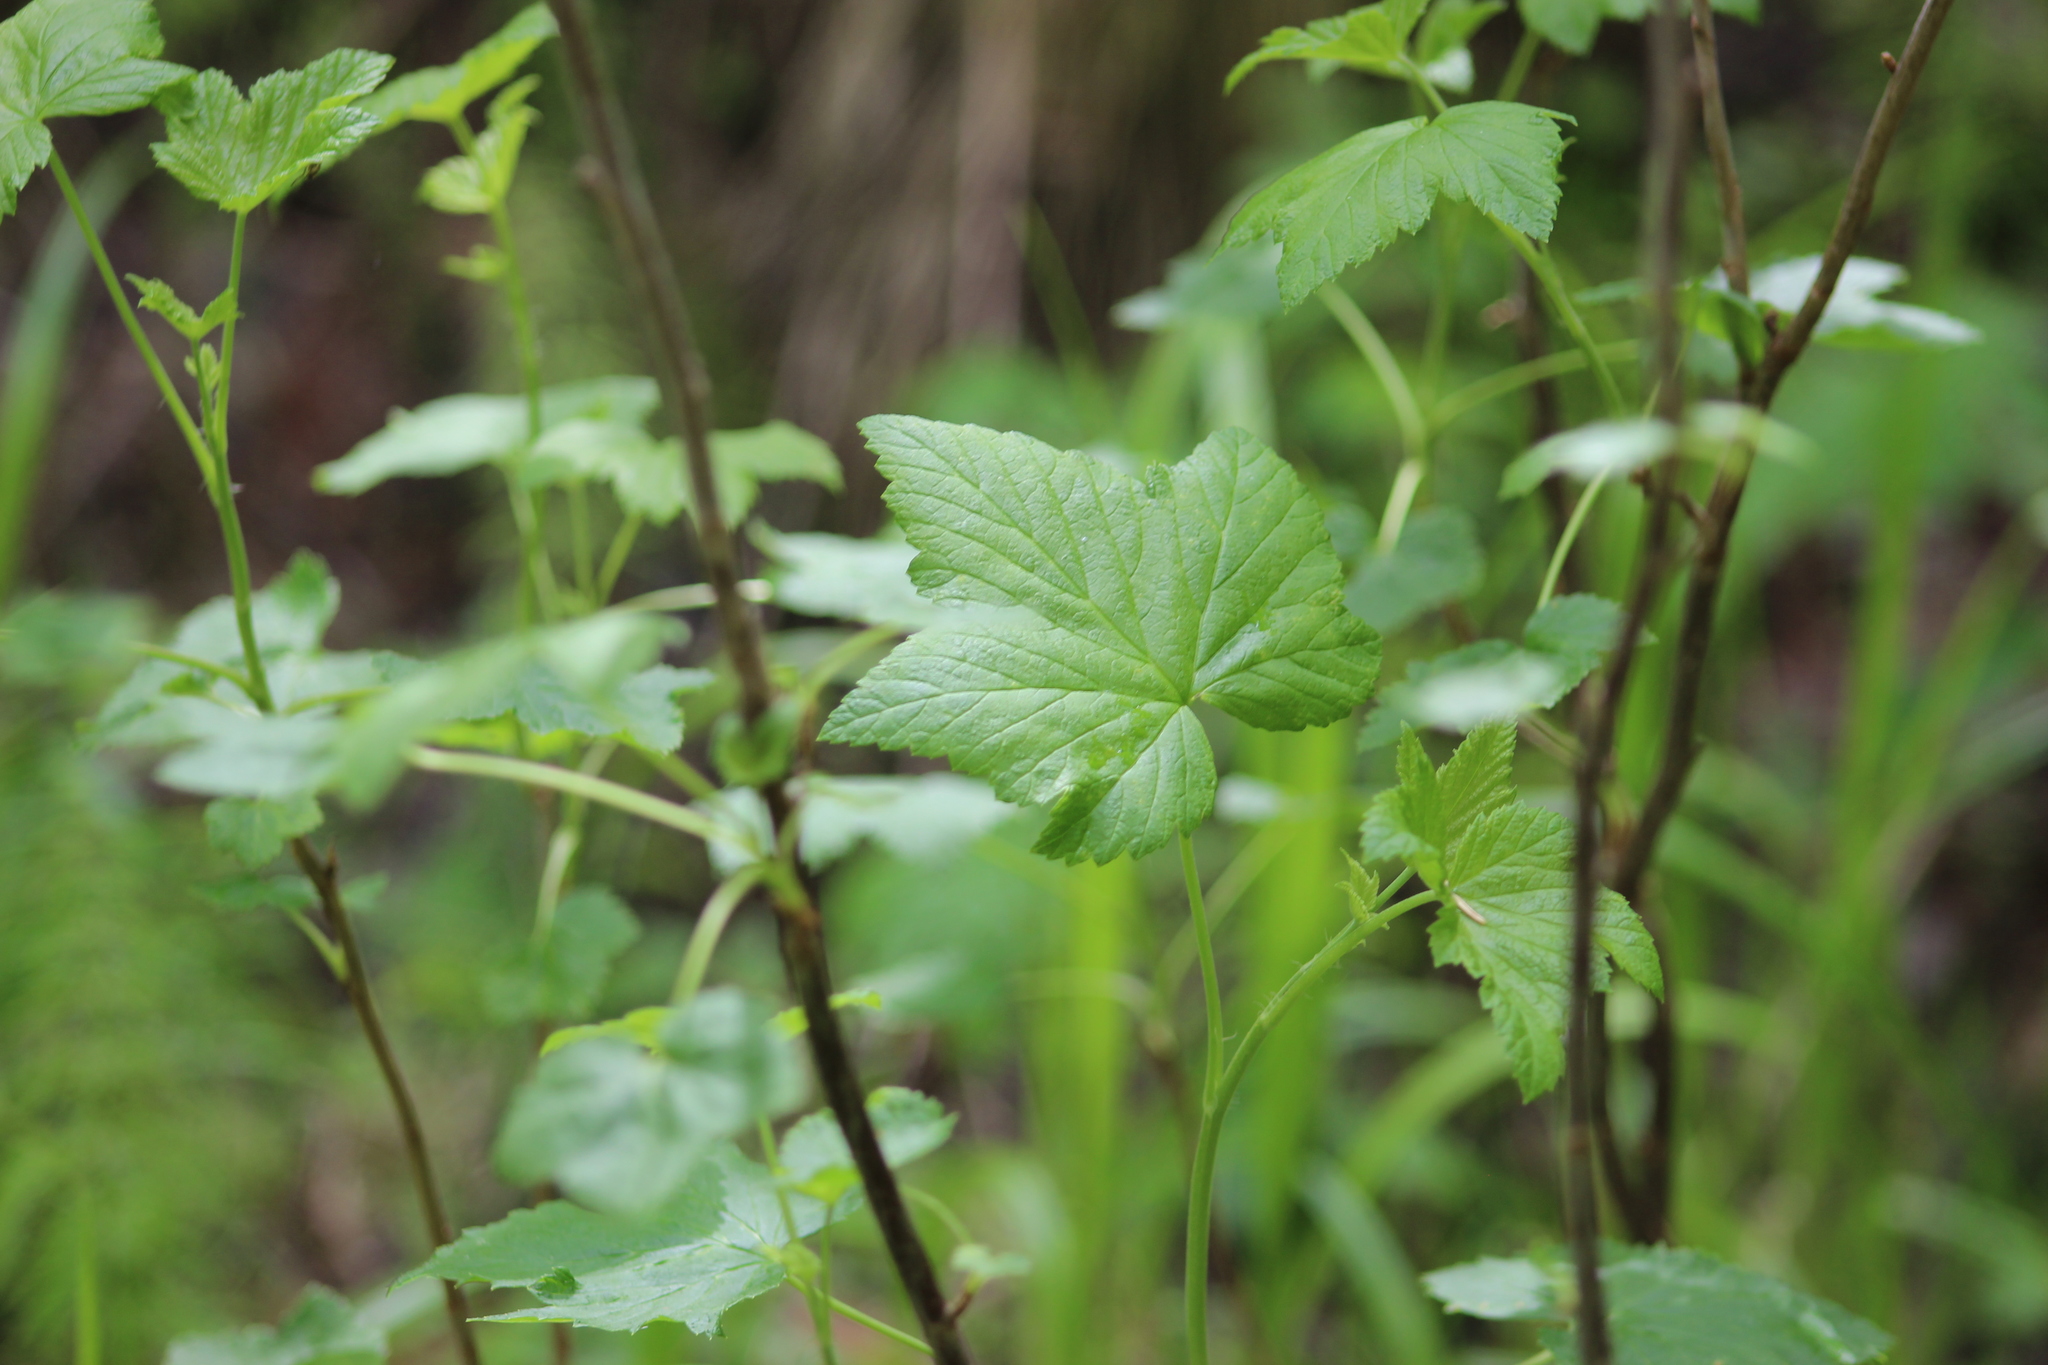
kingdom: Plantae
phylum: Tracheophyta
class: Magnoliopsida
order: Saxifragales
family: Grossulariaceae
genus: Ribes
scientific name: Ribes nigrum
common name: Black currant
